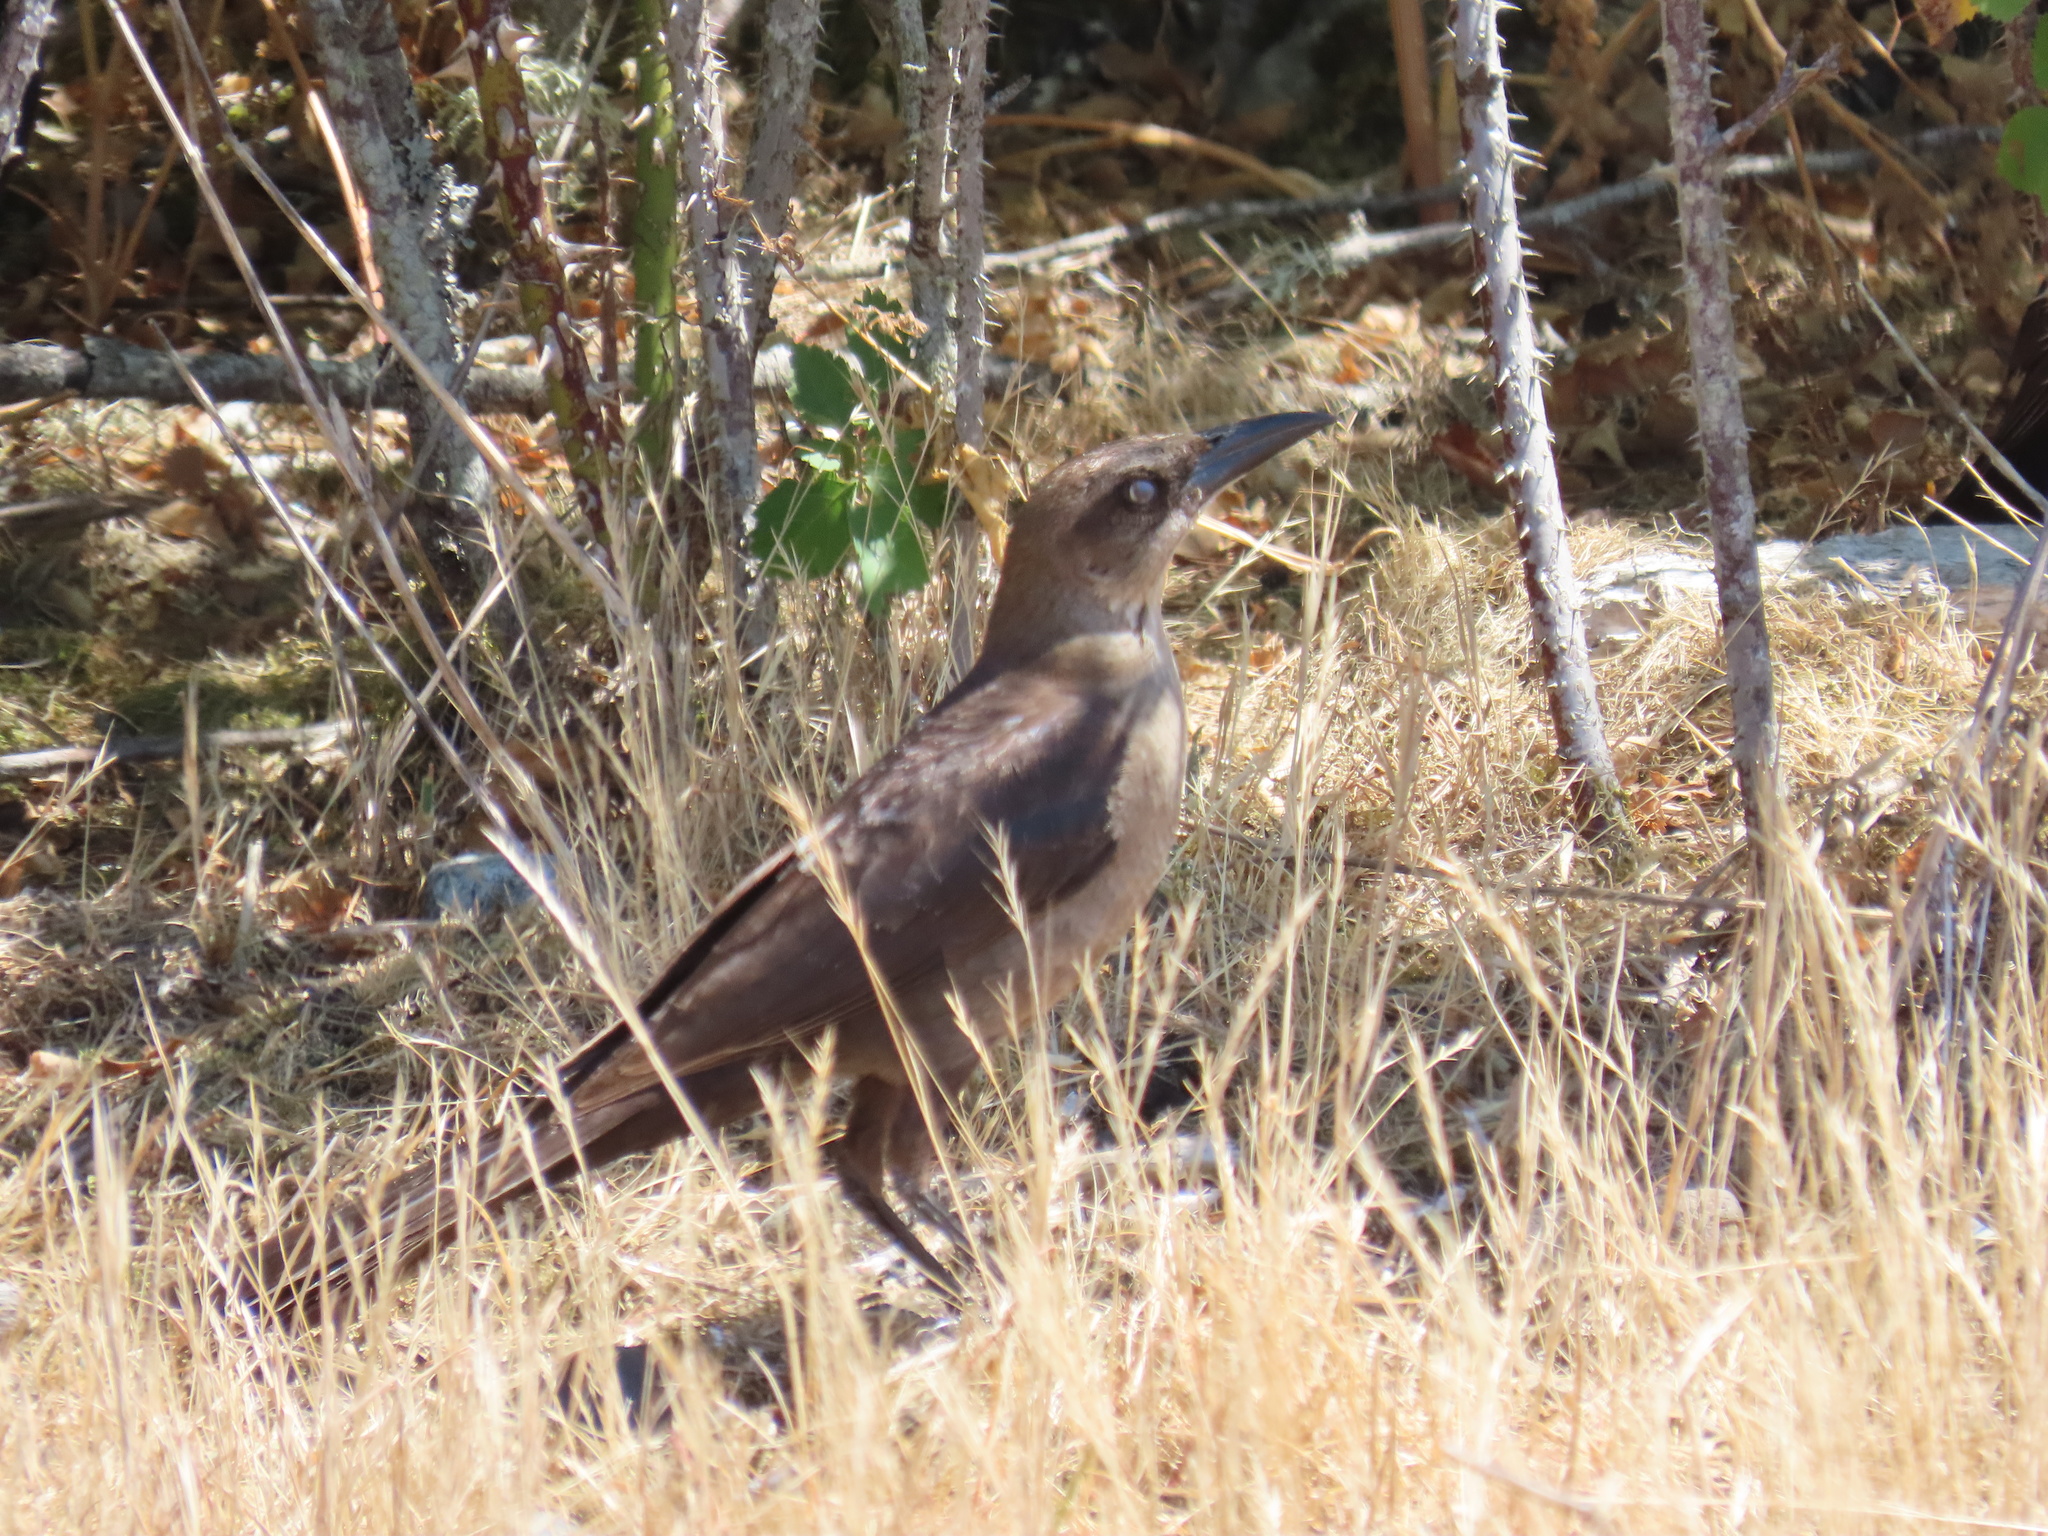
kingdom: Animalia
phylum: Chordata
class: Aves
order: Passeriformes
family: Icteridae
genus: Quiscalus
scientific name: Quiscalus mexicanus
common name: Great-tailed grackle
